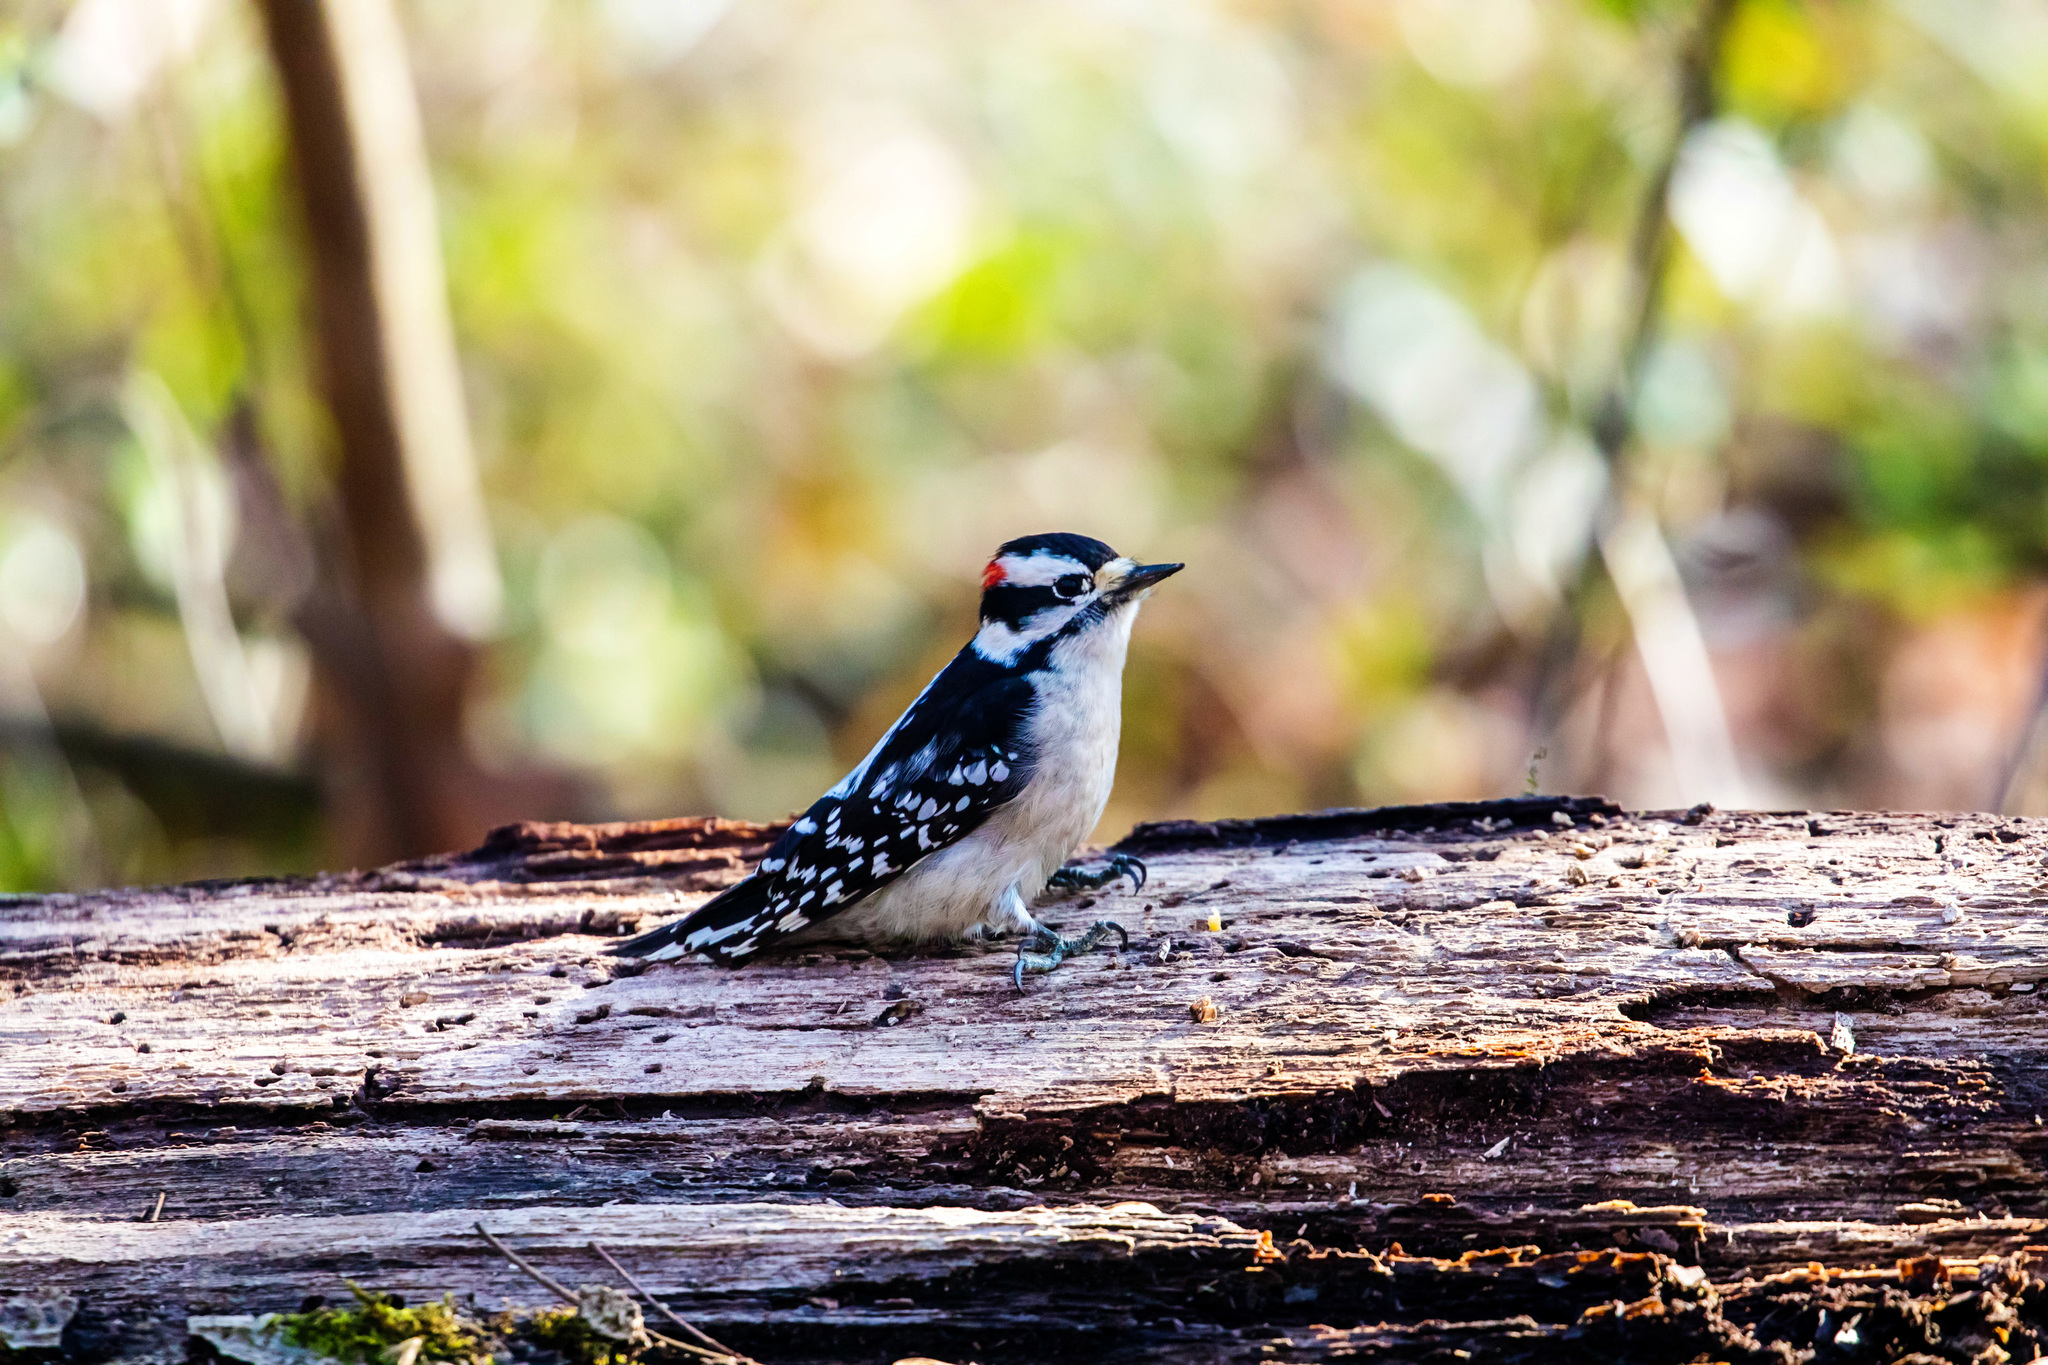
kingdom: Animalia
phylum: Chordata
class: Aves
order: Piciformes
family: Picidae
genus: Dryobates
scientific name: Dryobates pubescens
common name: Downy woodpecker
